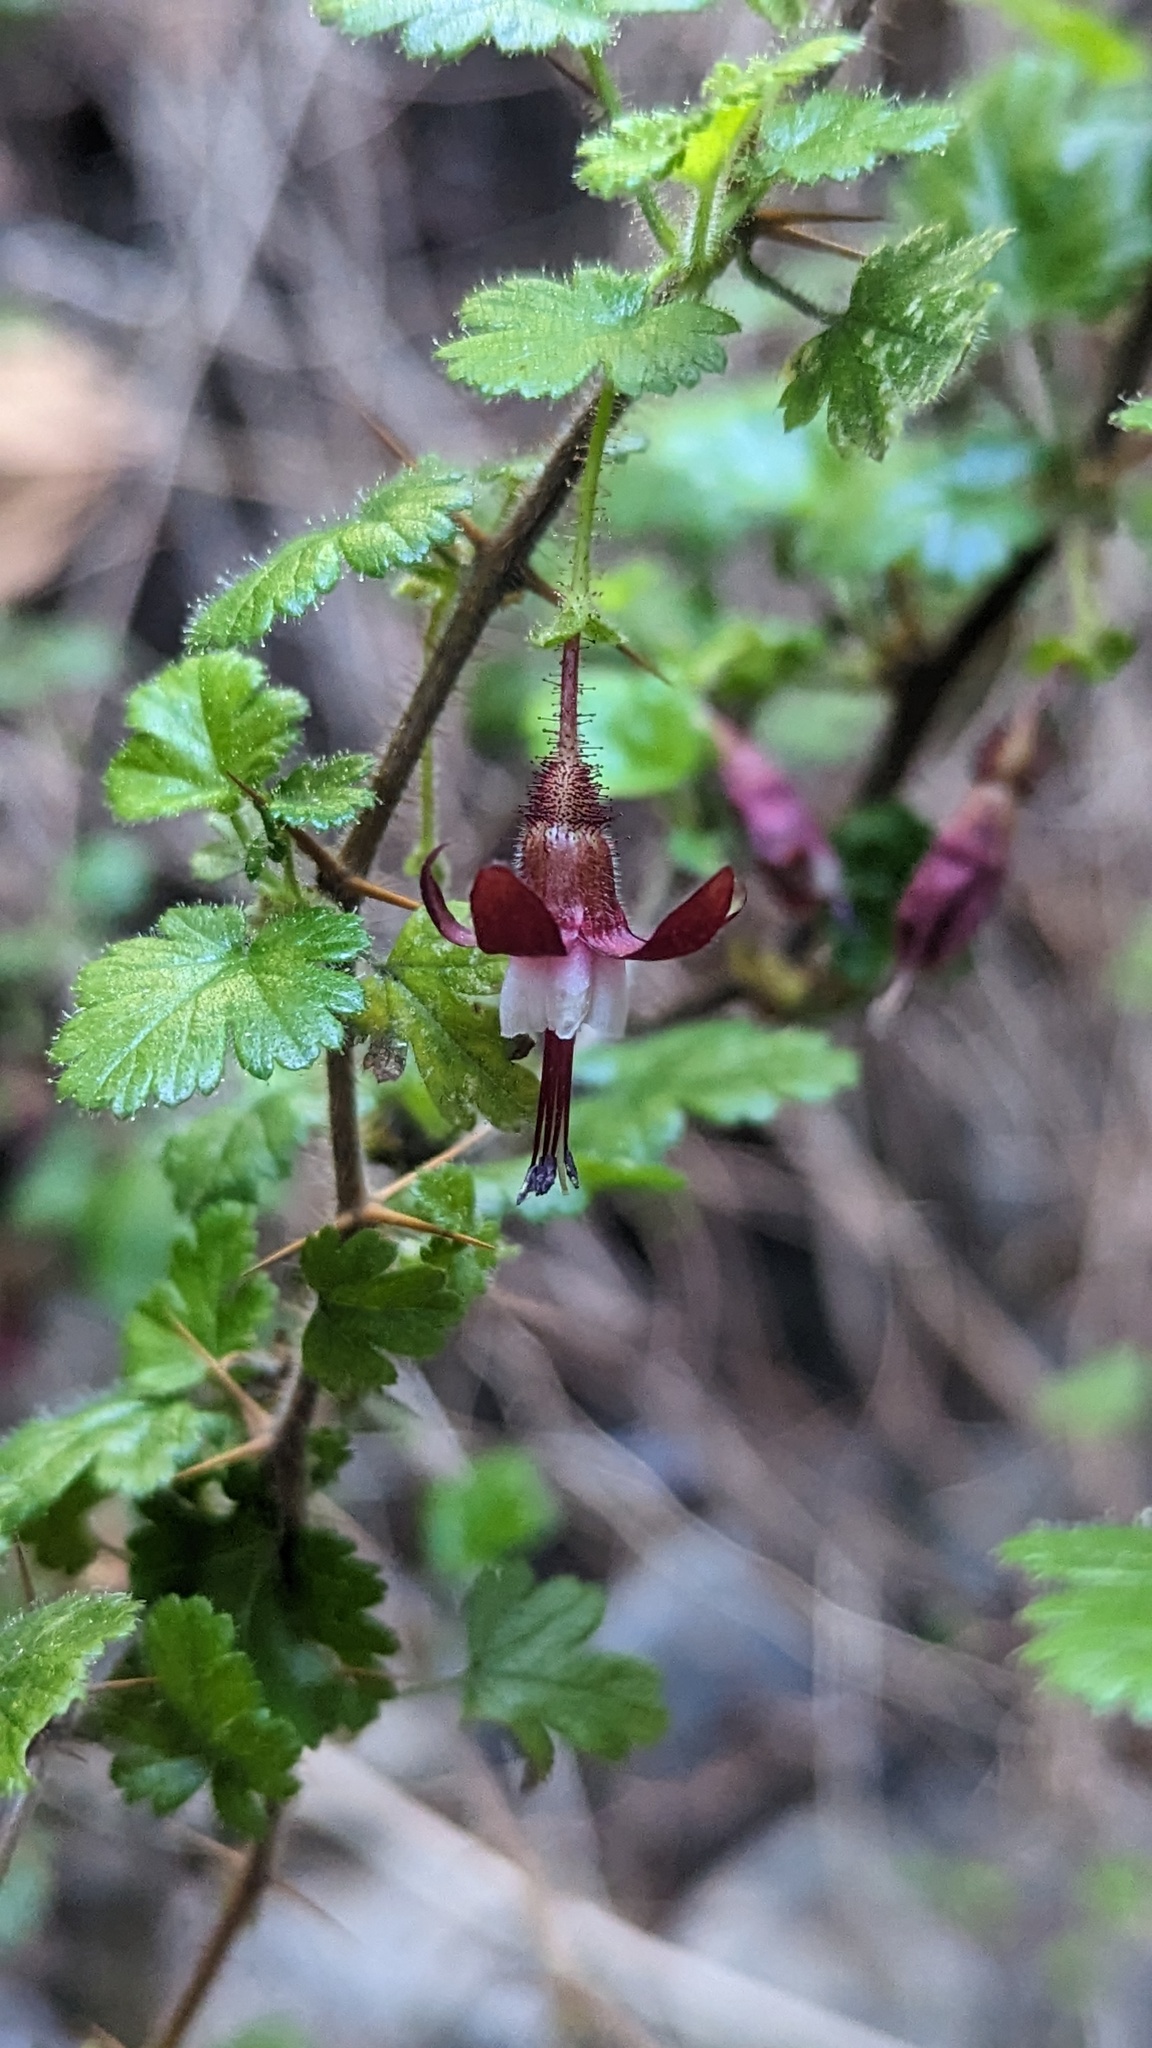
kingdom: Plantae
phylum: Tracheophyta
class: Magnoliopsida
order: Saxifragales
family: Grossulariaceae
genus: Ribes
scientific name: Ribes sericeum
